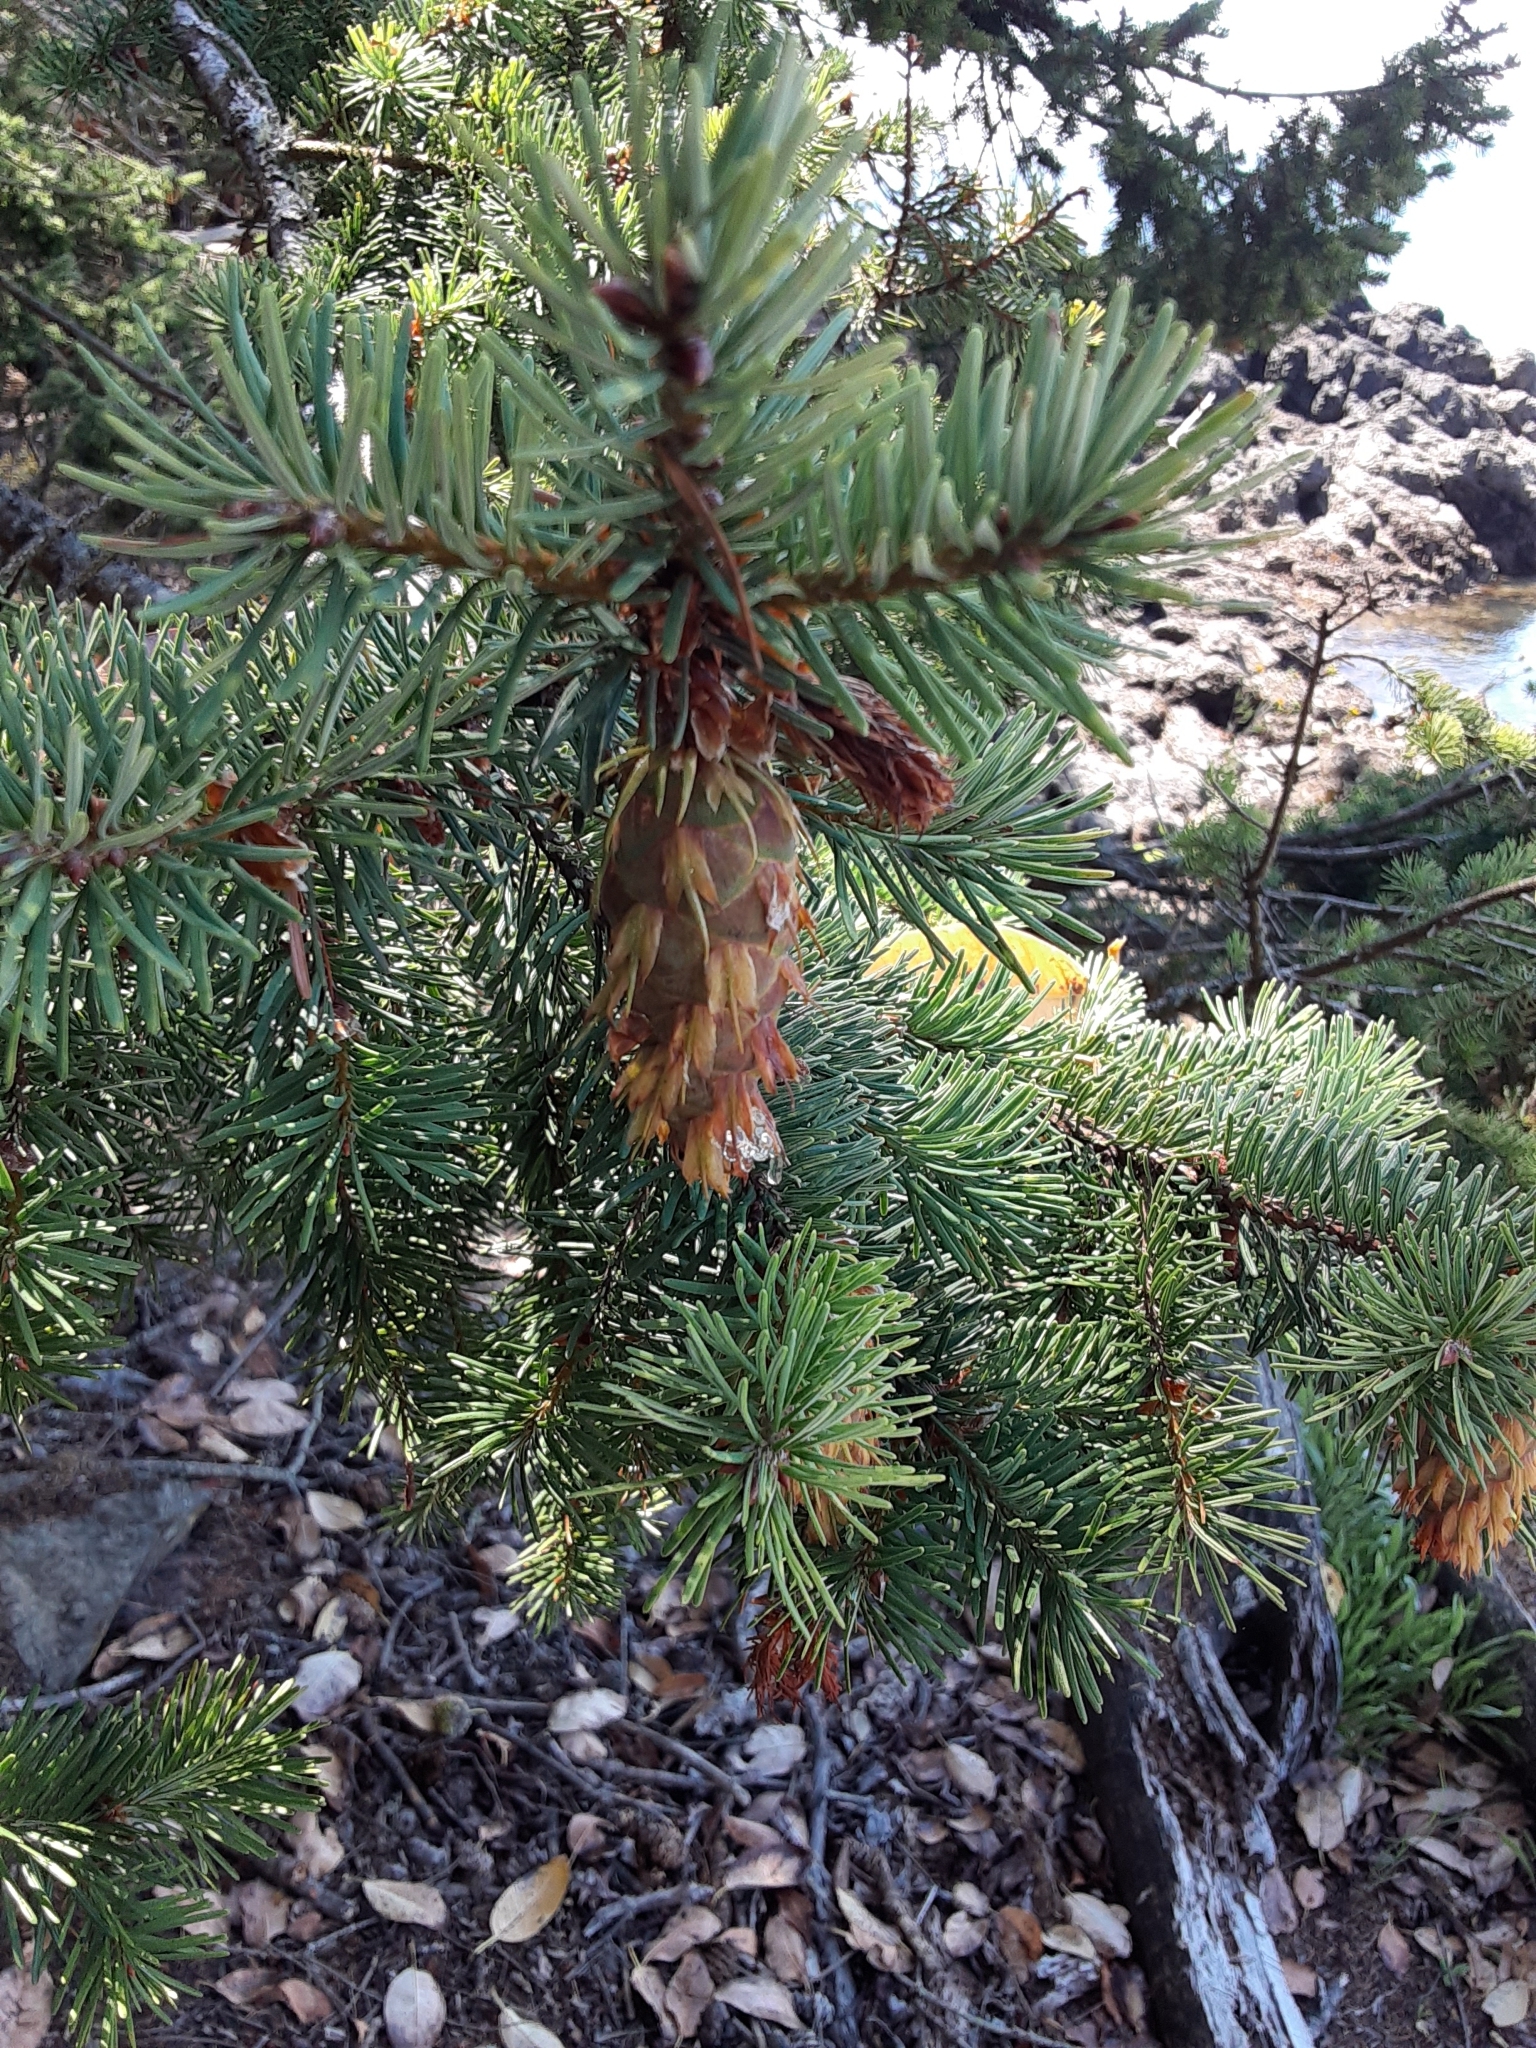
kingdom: Plantae
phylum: Tracheophyta
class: Pinopsida
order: Pinales
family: Pinaceae
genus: Pseudotsuga
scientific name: Pseudotsuga menziesii
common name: Douglas fir
